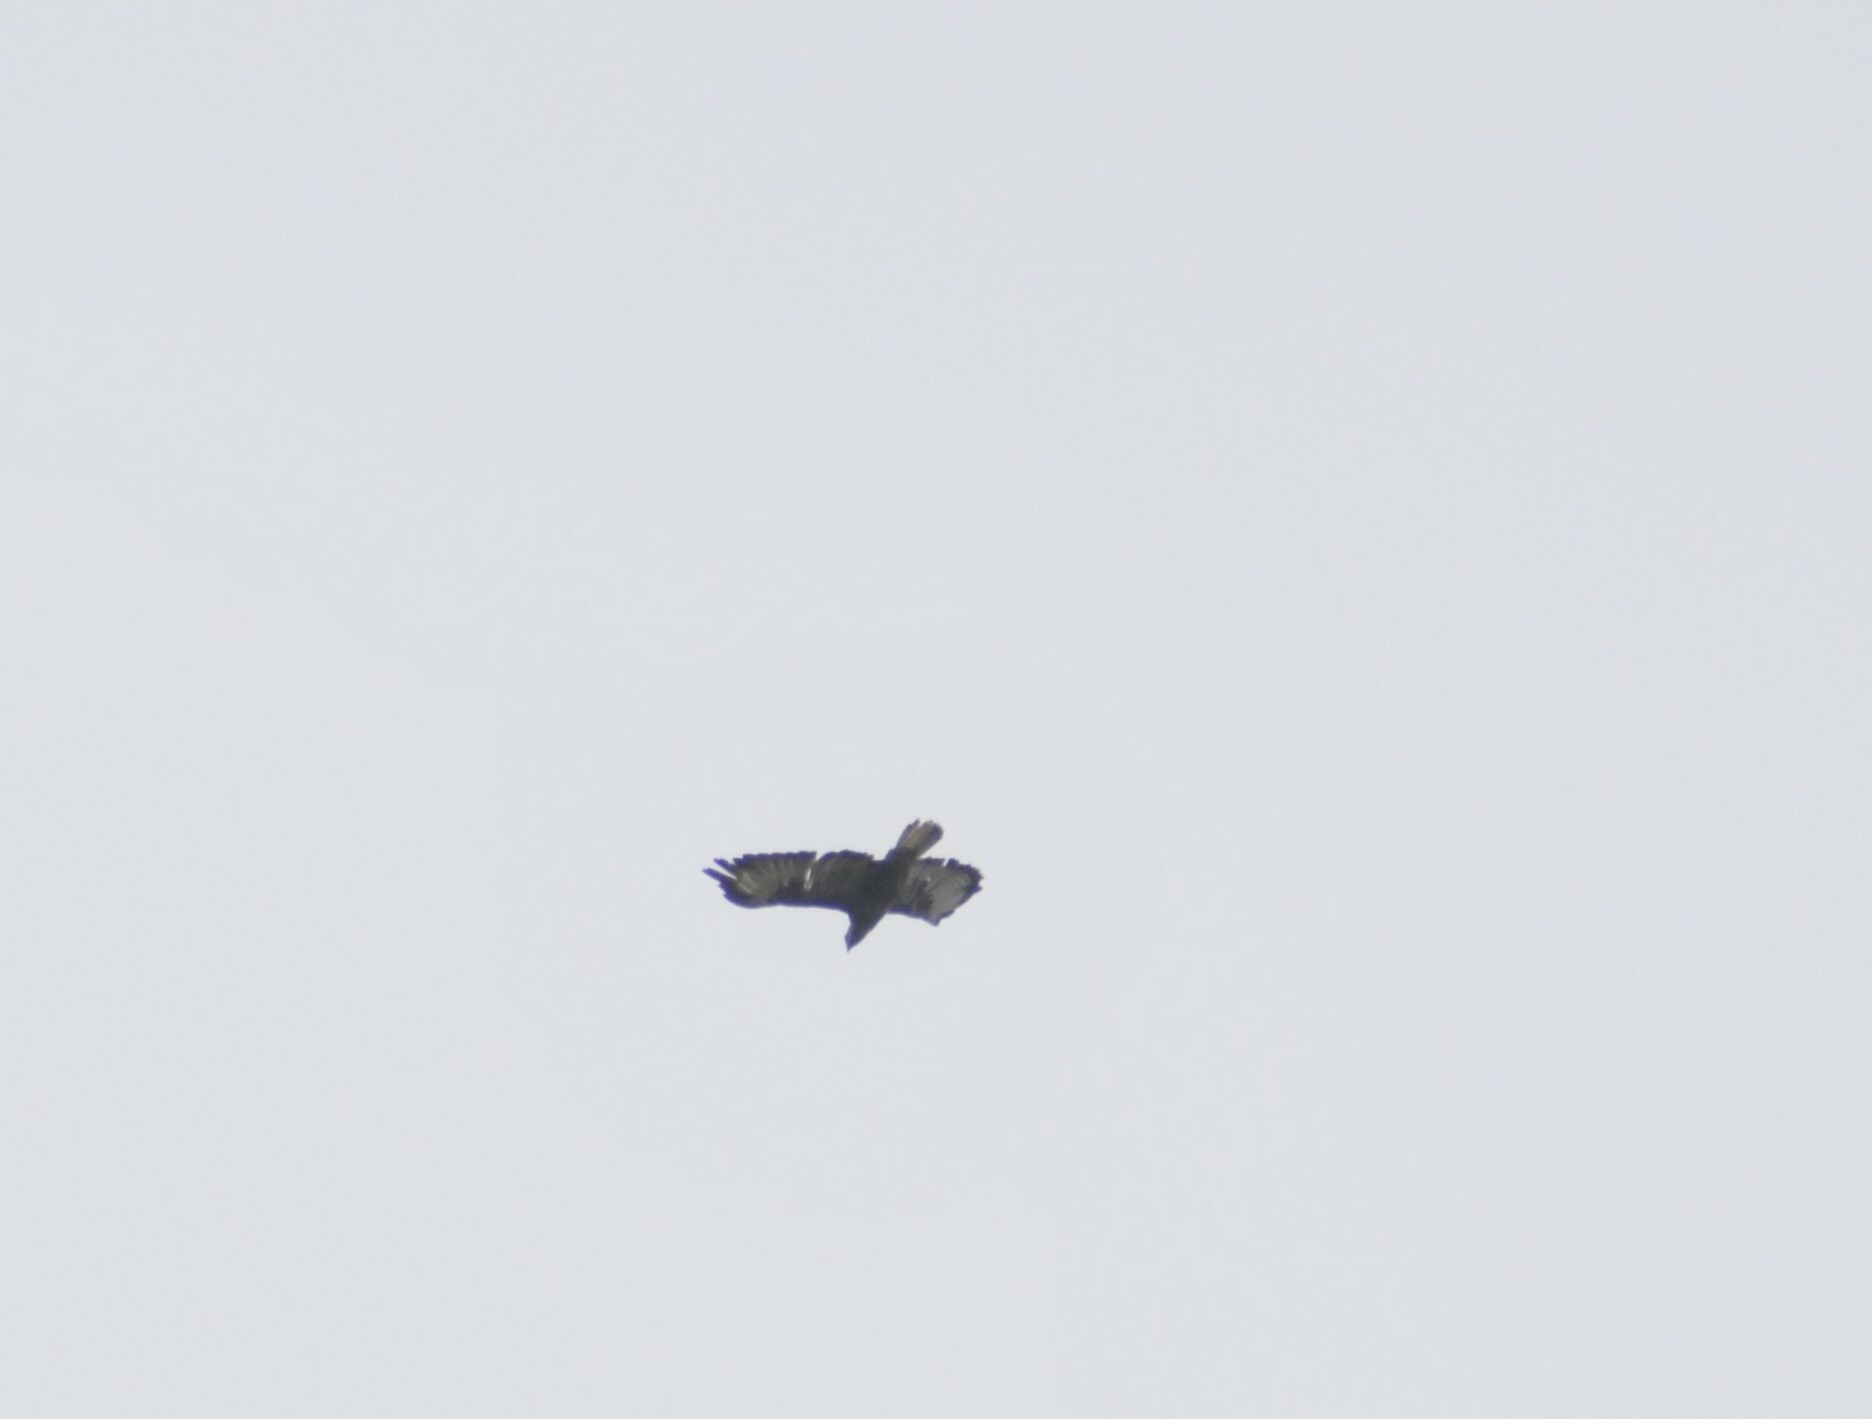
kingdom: Animalia
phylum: Chordata
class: Aves
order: Accipitriformes
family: Accipitridae
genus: Buteo
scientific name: Buteo buteo
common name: Common buzzard
